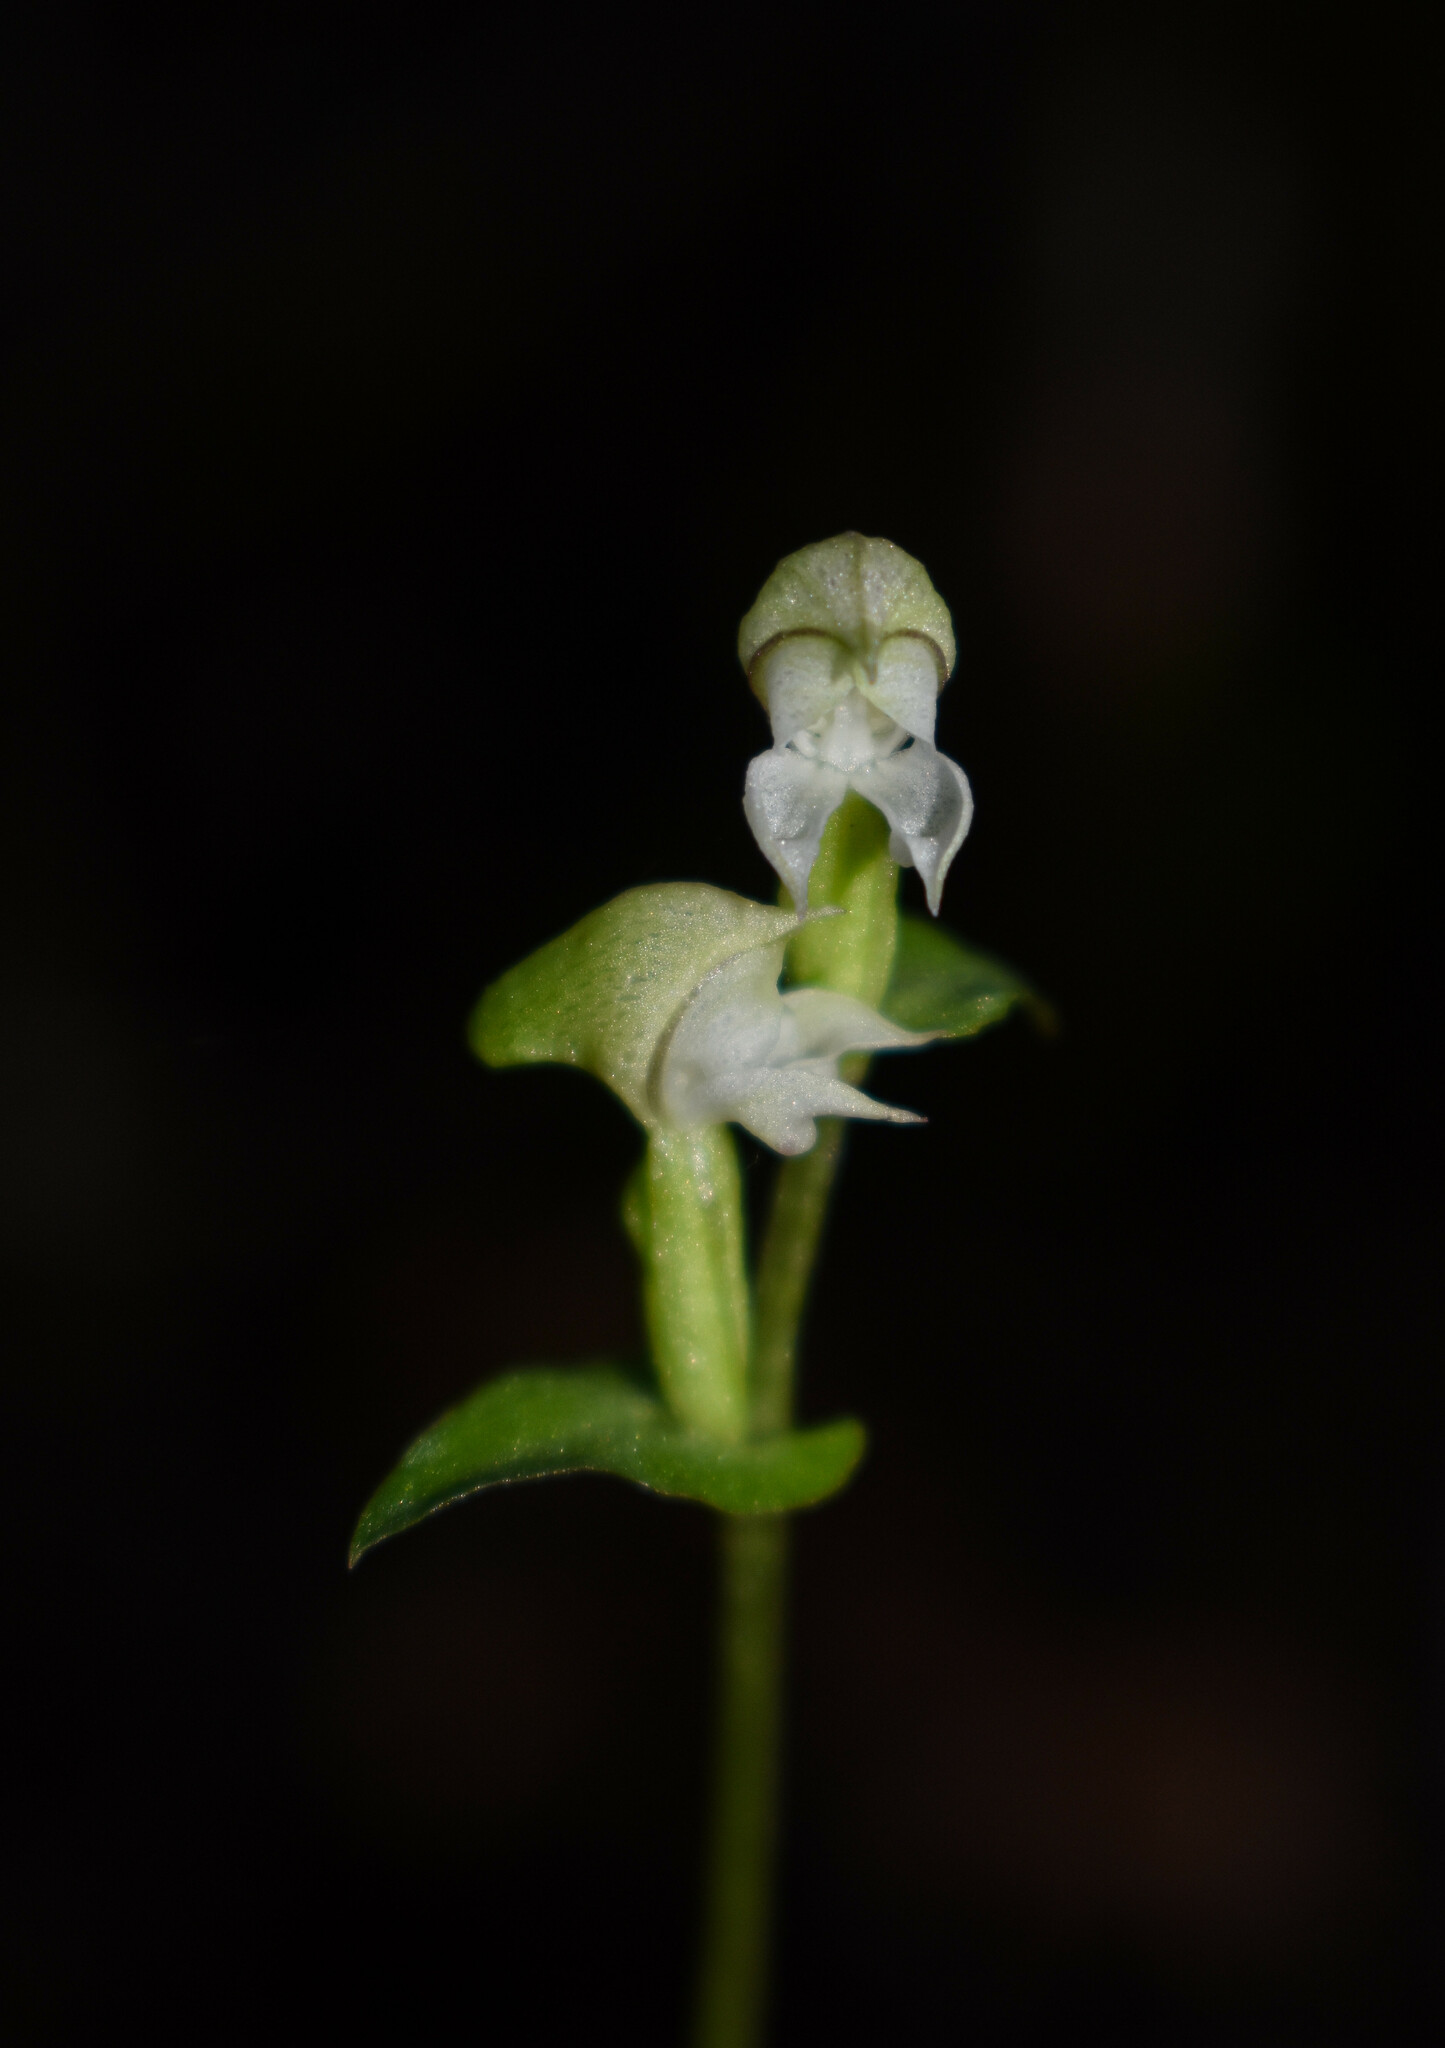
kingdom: Plantae
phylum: Tracheophyta
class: Liliopsida
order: Asparagales
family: Orchidaceae
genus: Disperis
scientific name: Disperis disiformis
